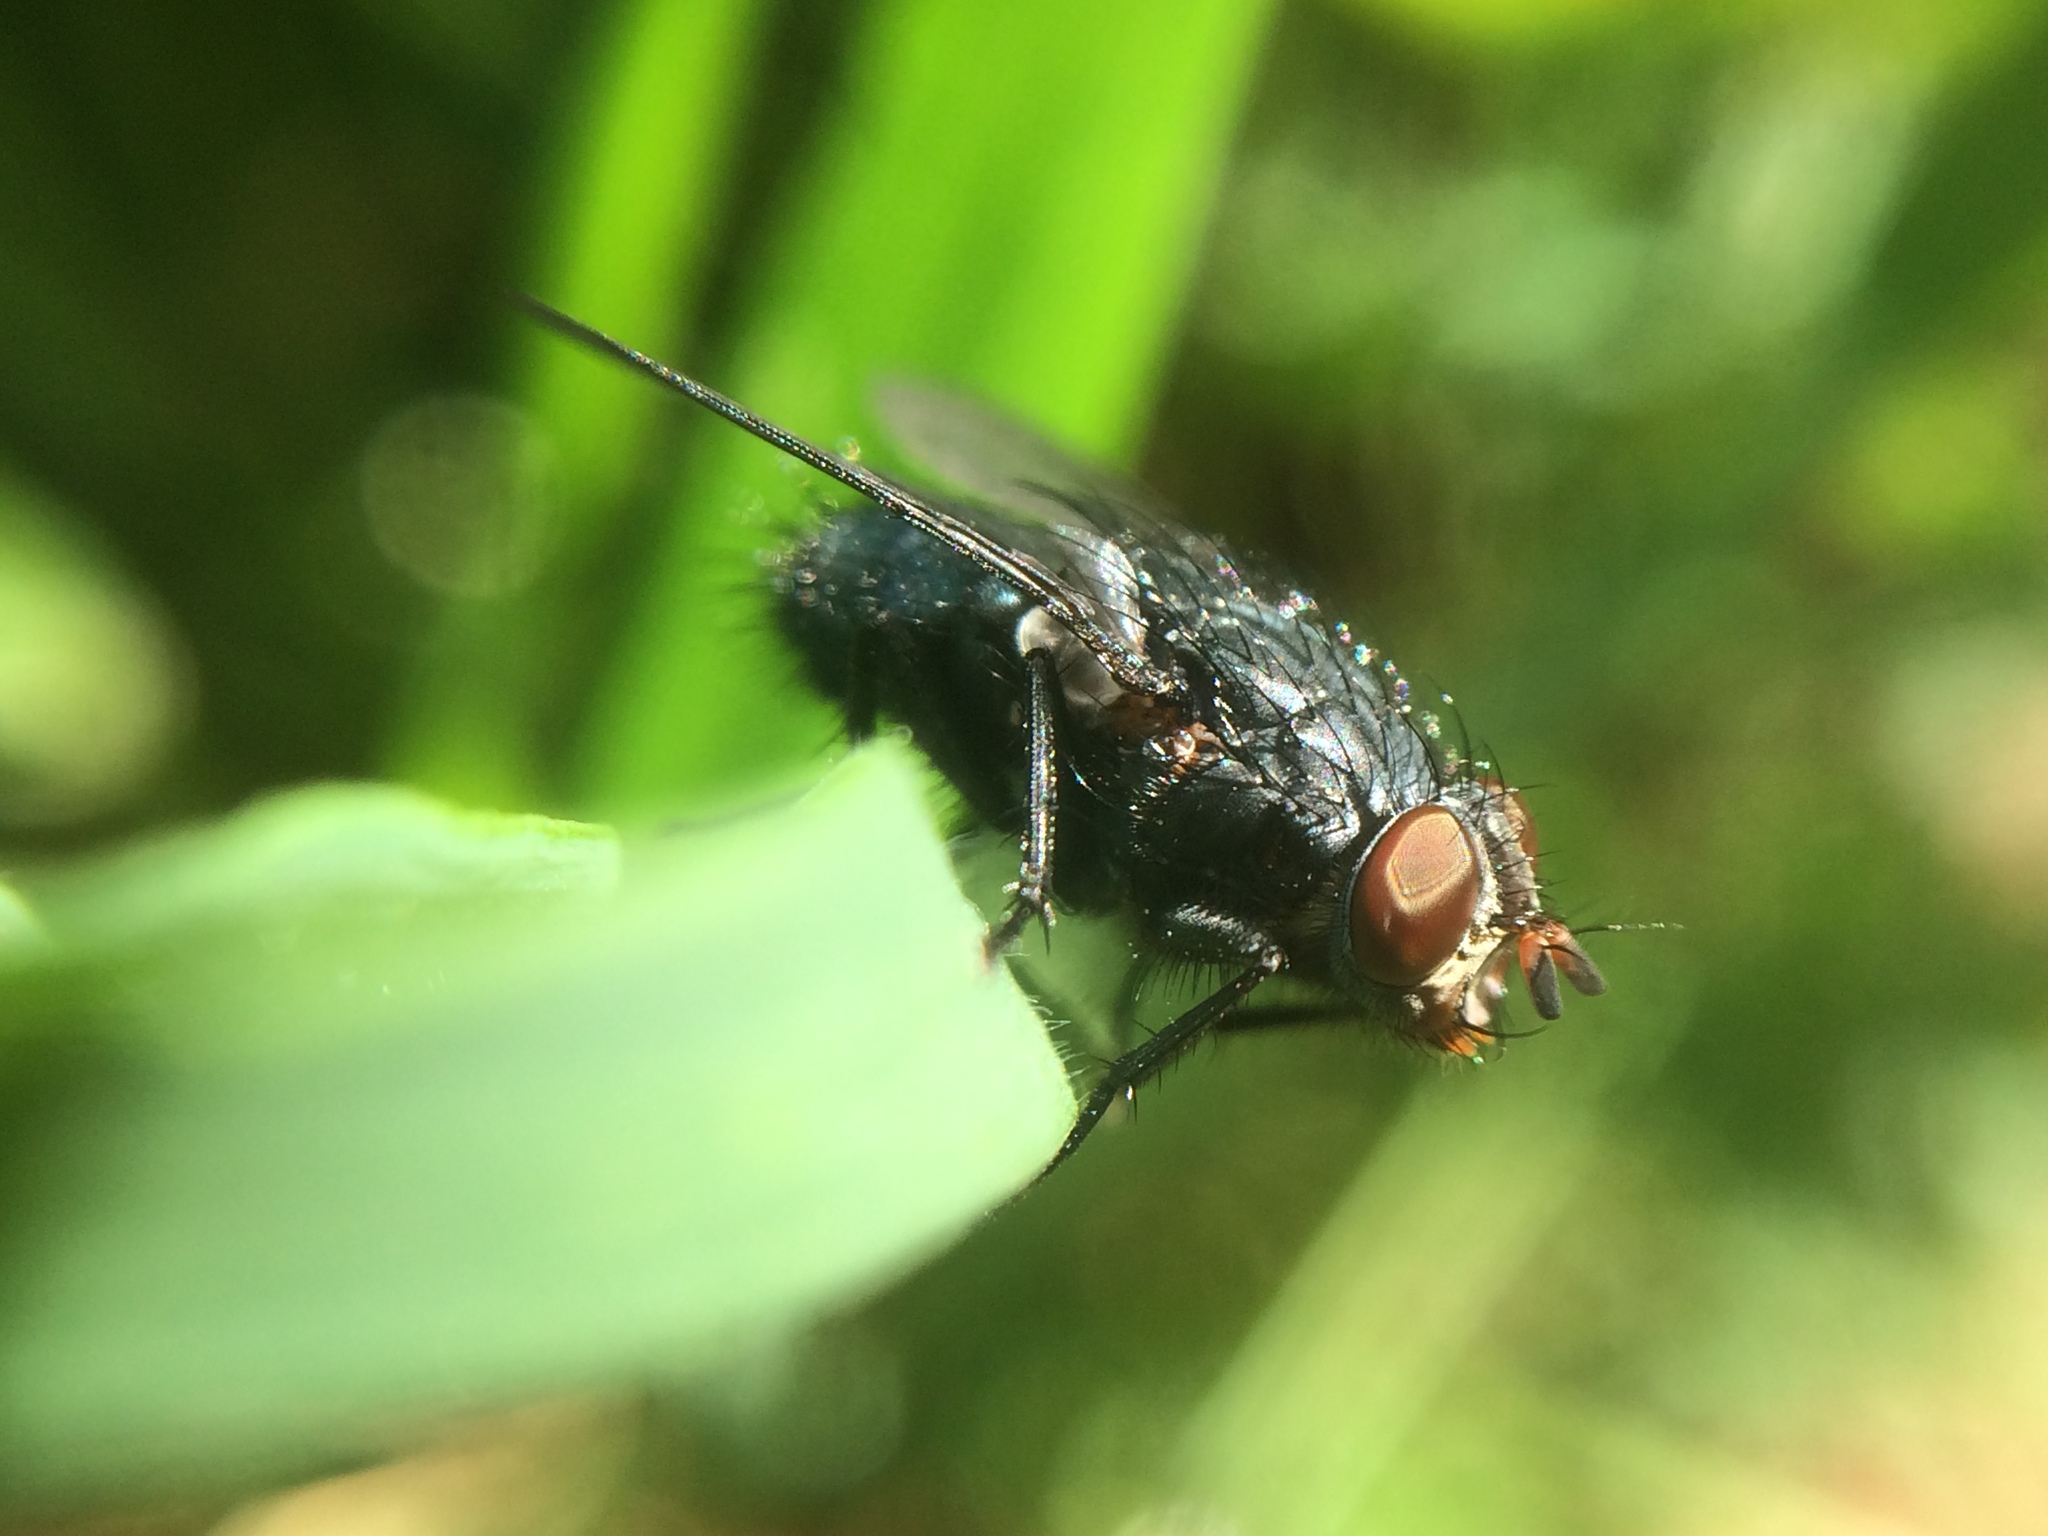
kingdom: Animalia
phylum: Arthropoda
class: Insecta
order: Diptera
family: Calliphoridae
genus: Calliphora
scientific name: Calliphora
